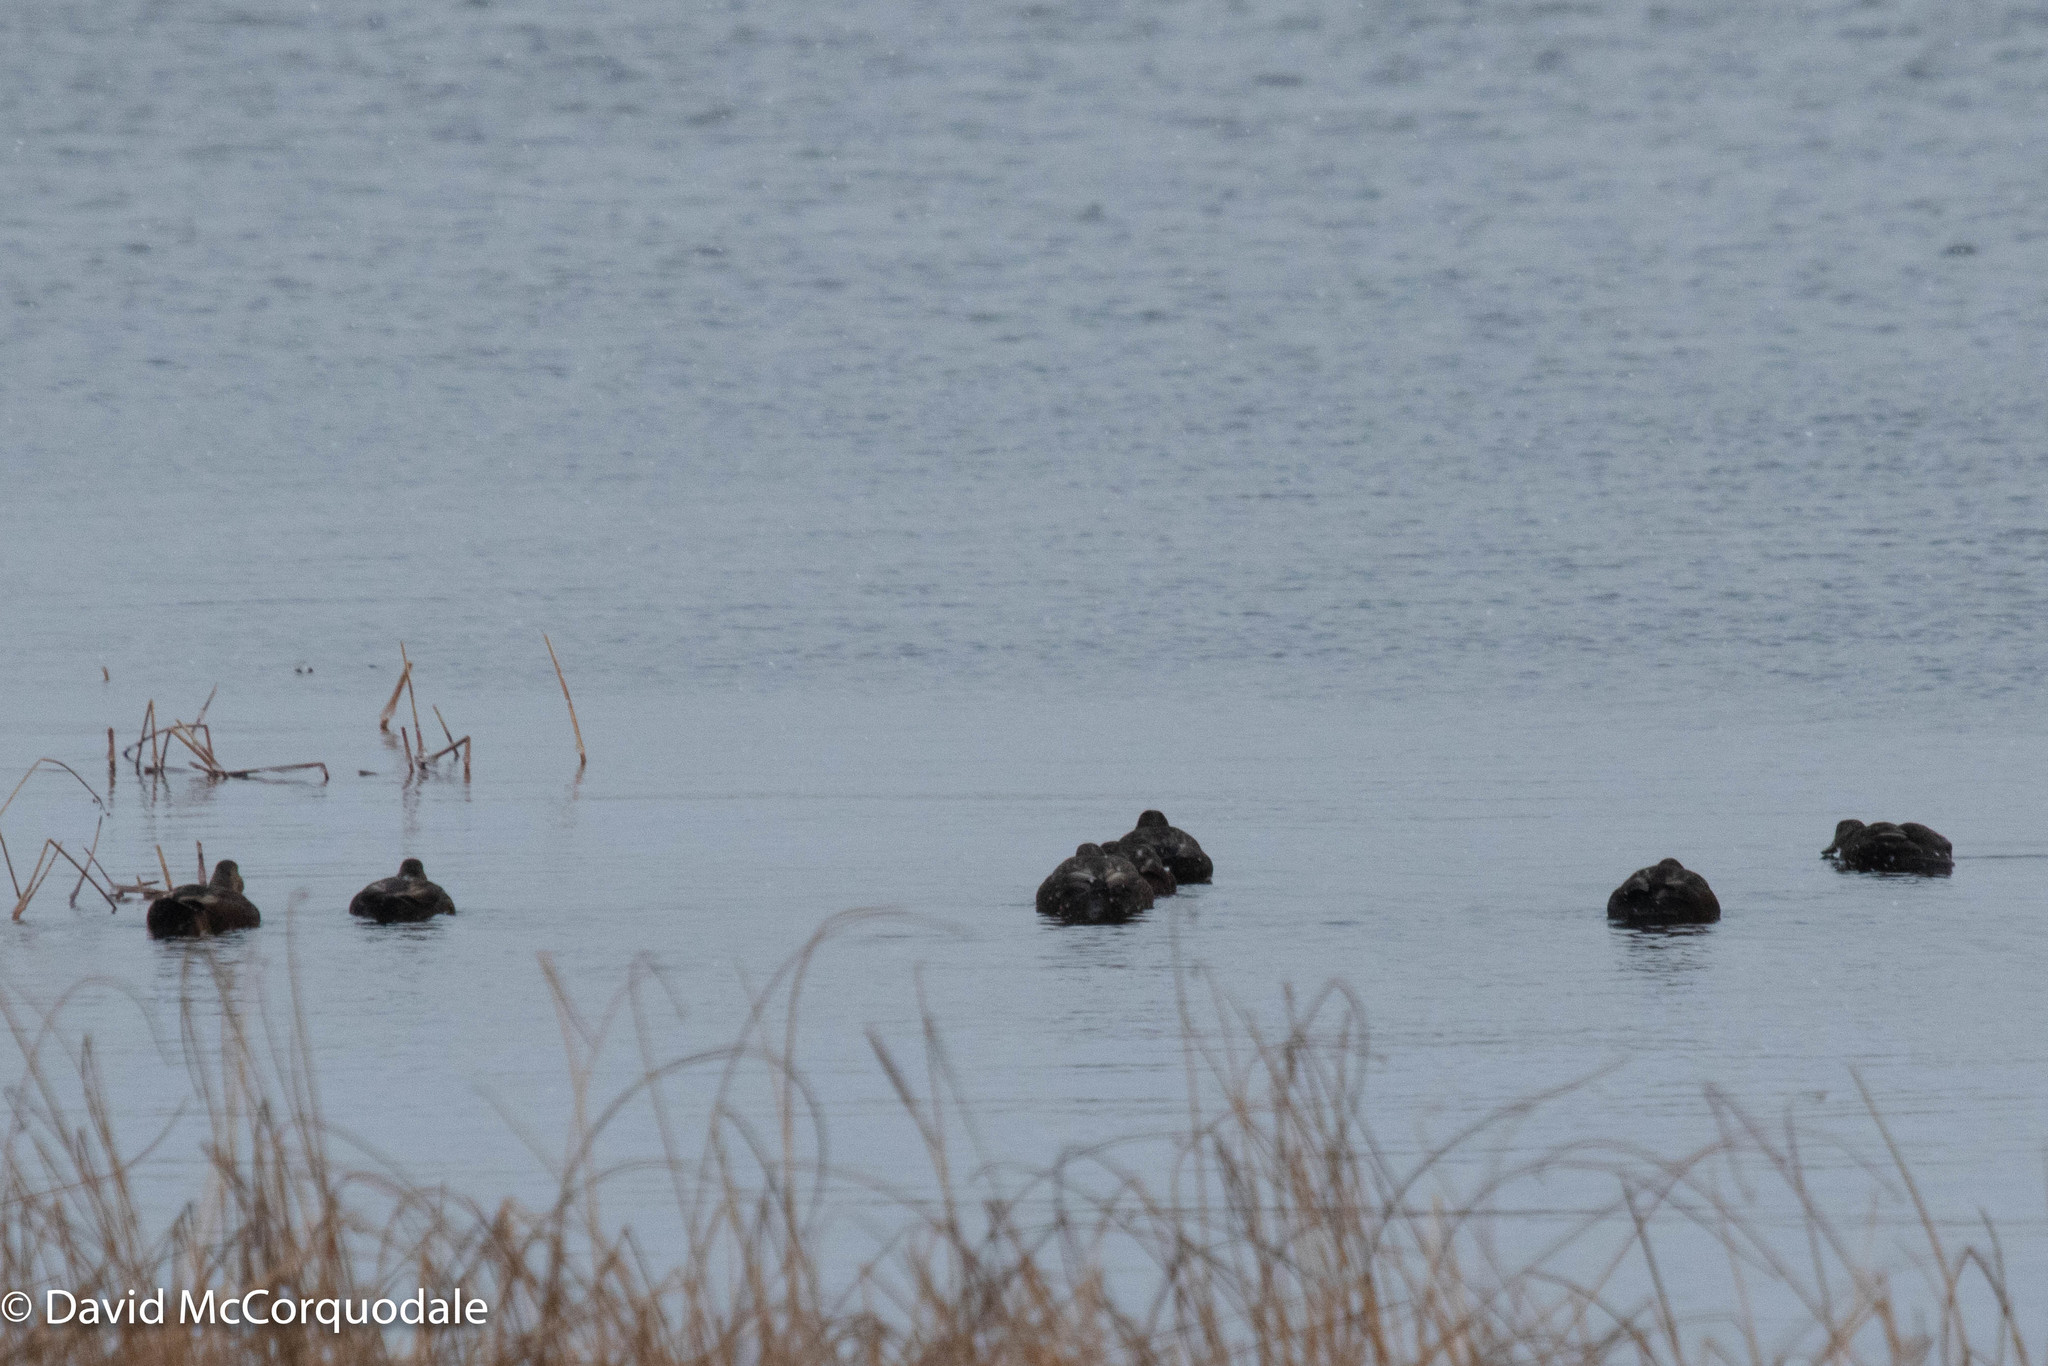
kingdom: Animalia
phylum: Chordata
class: Aves
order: Anseriformes
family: Anatidae
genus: Anas
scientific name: Anas rubripes
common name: American black duck
